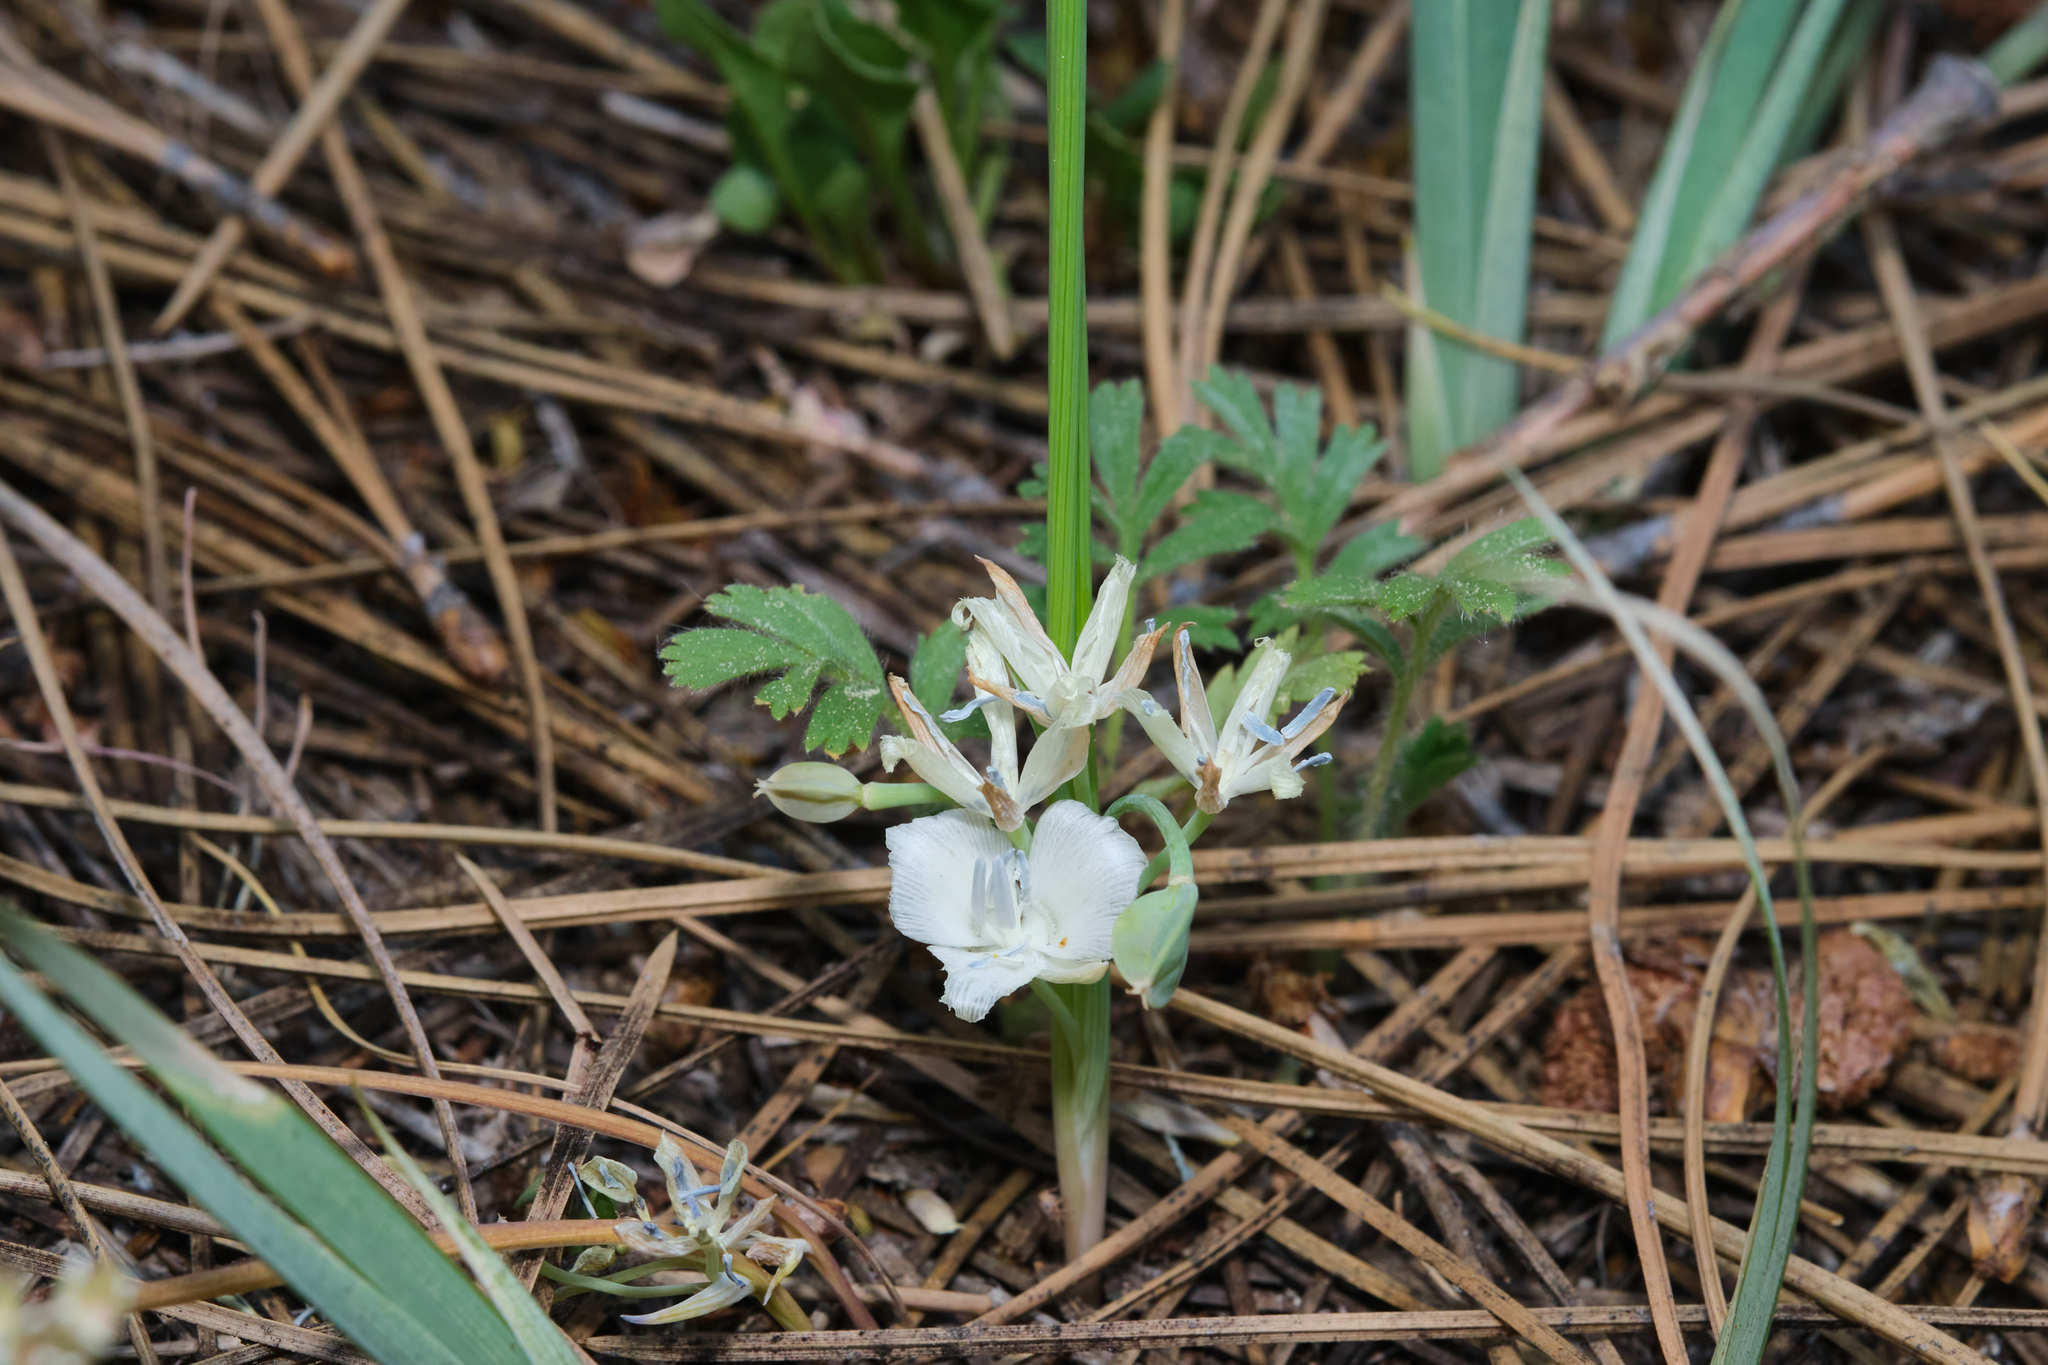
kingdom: Plantae
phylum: Tracheophyta
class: Liliopsida
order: Liliales
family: Liliaceae
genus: Calochortus
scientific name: Calochortus minimus
